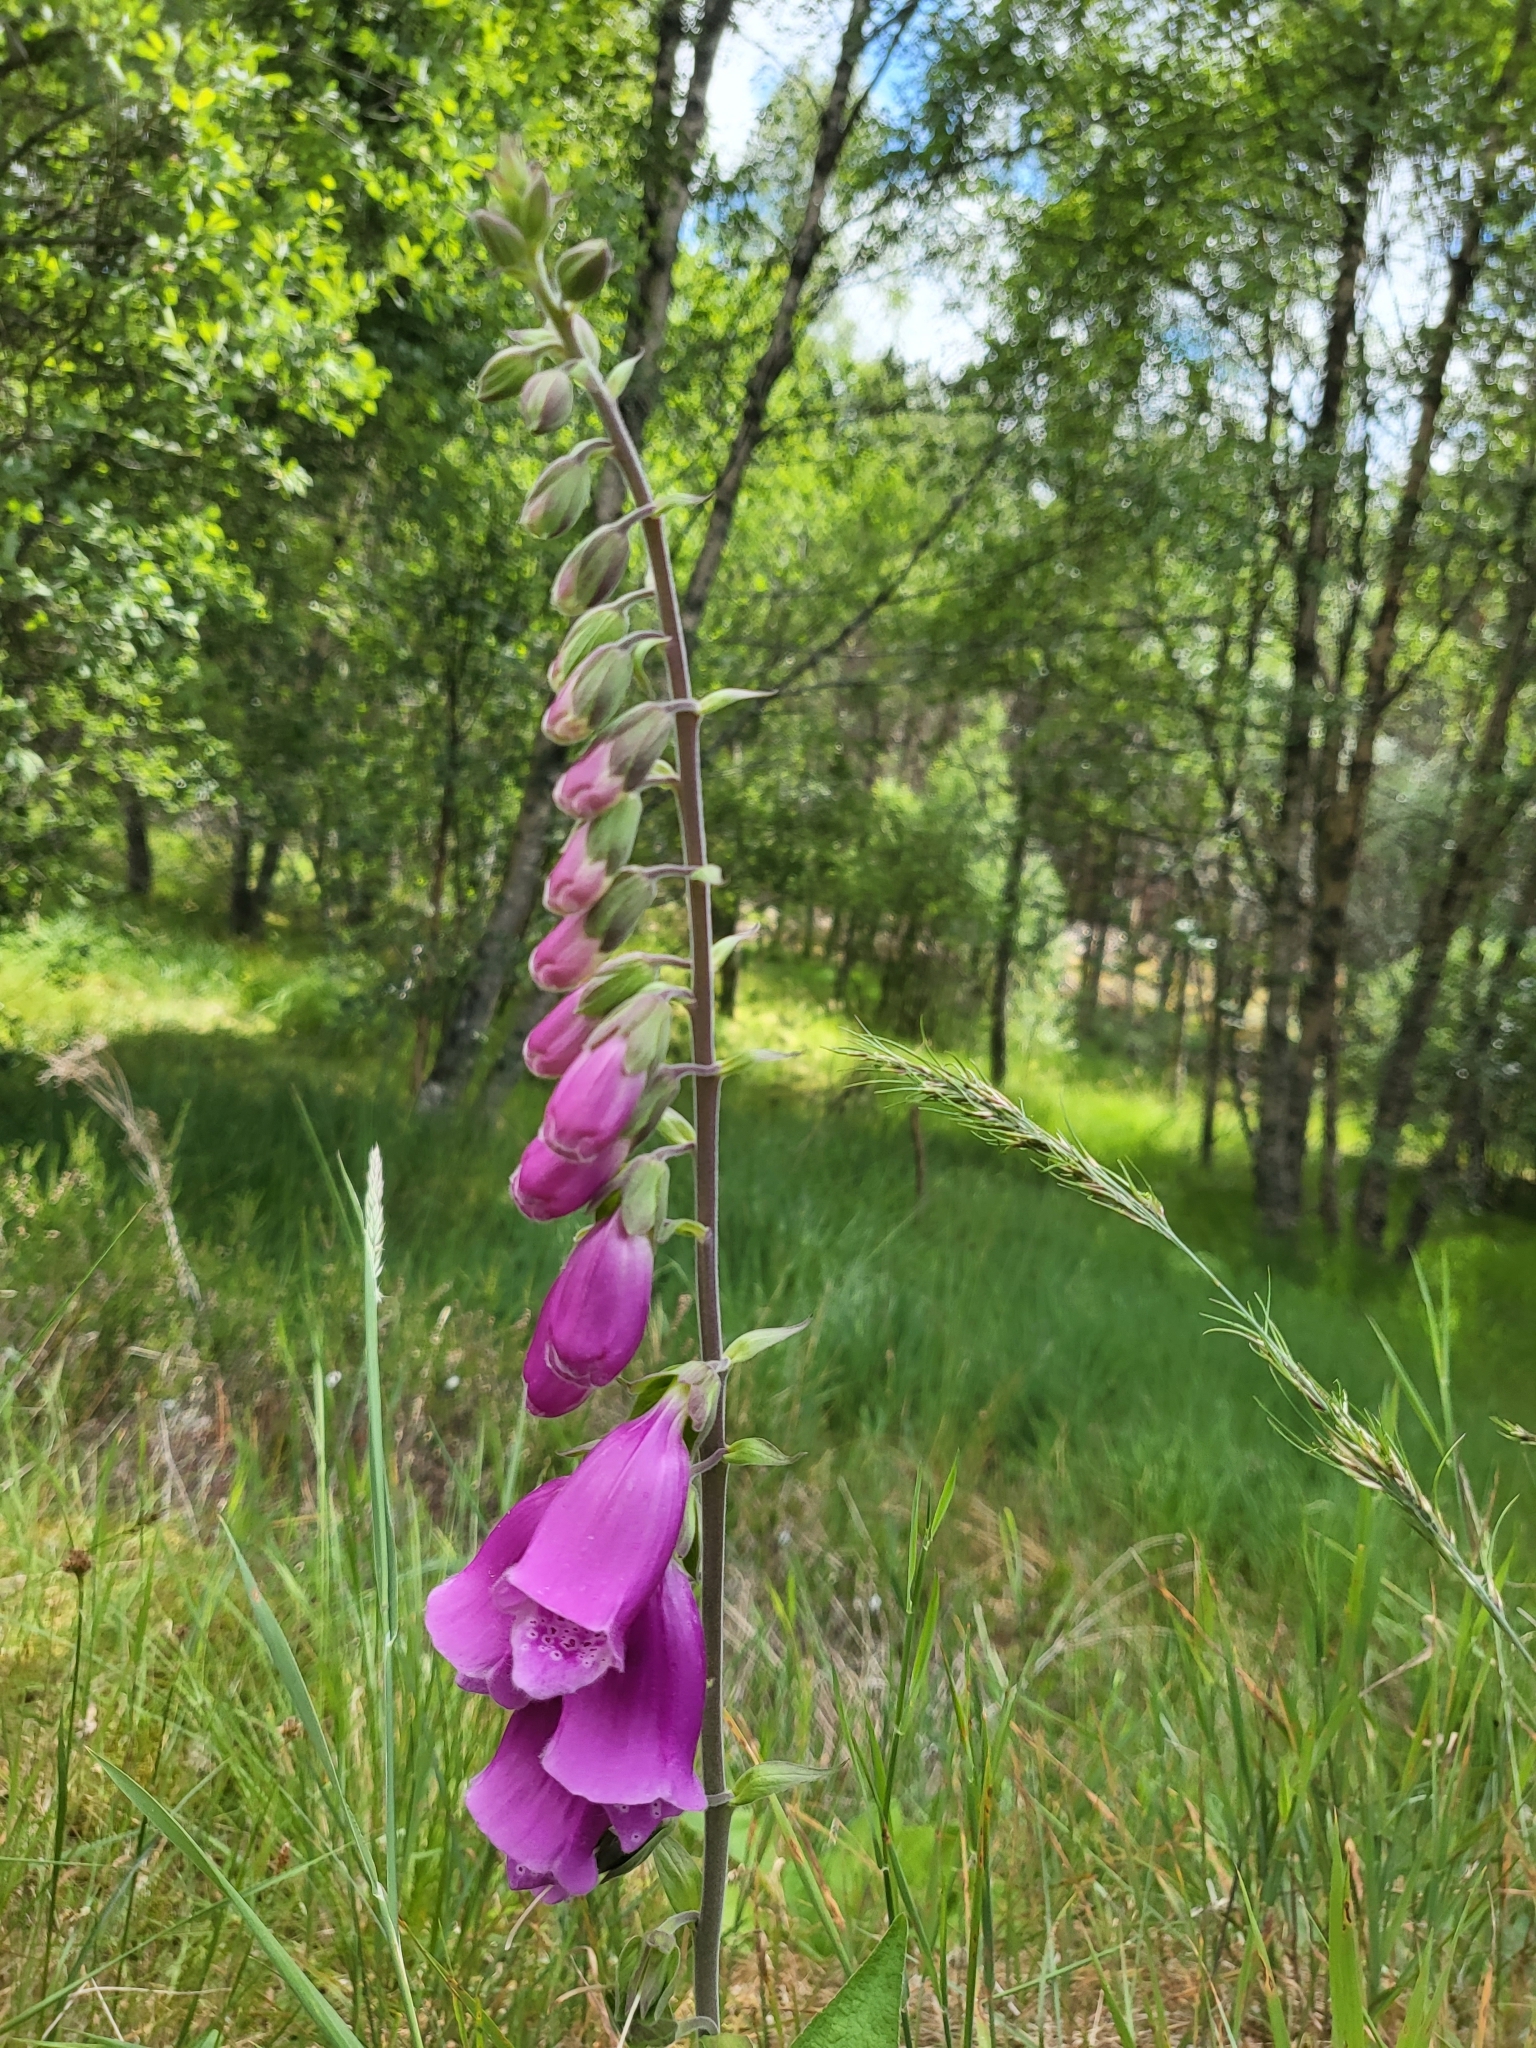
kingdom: Plantae
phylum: Tracheophyta
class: Magnoliopsida
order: Lamiales
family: Plantaginaceae
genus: Digitalis
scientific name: Digitalis purpurea
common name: Foxglove
